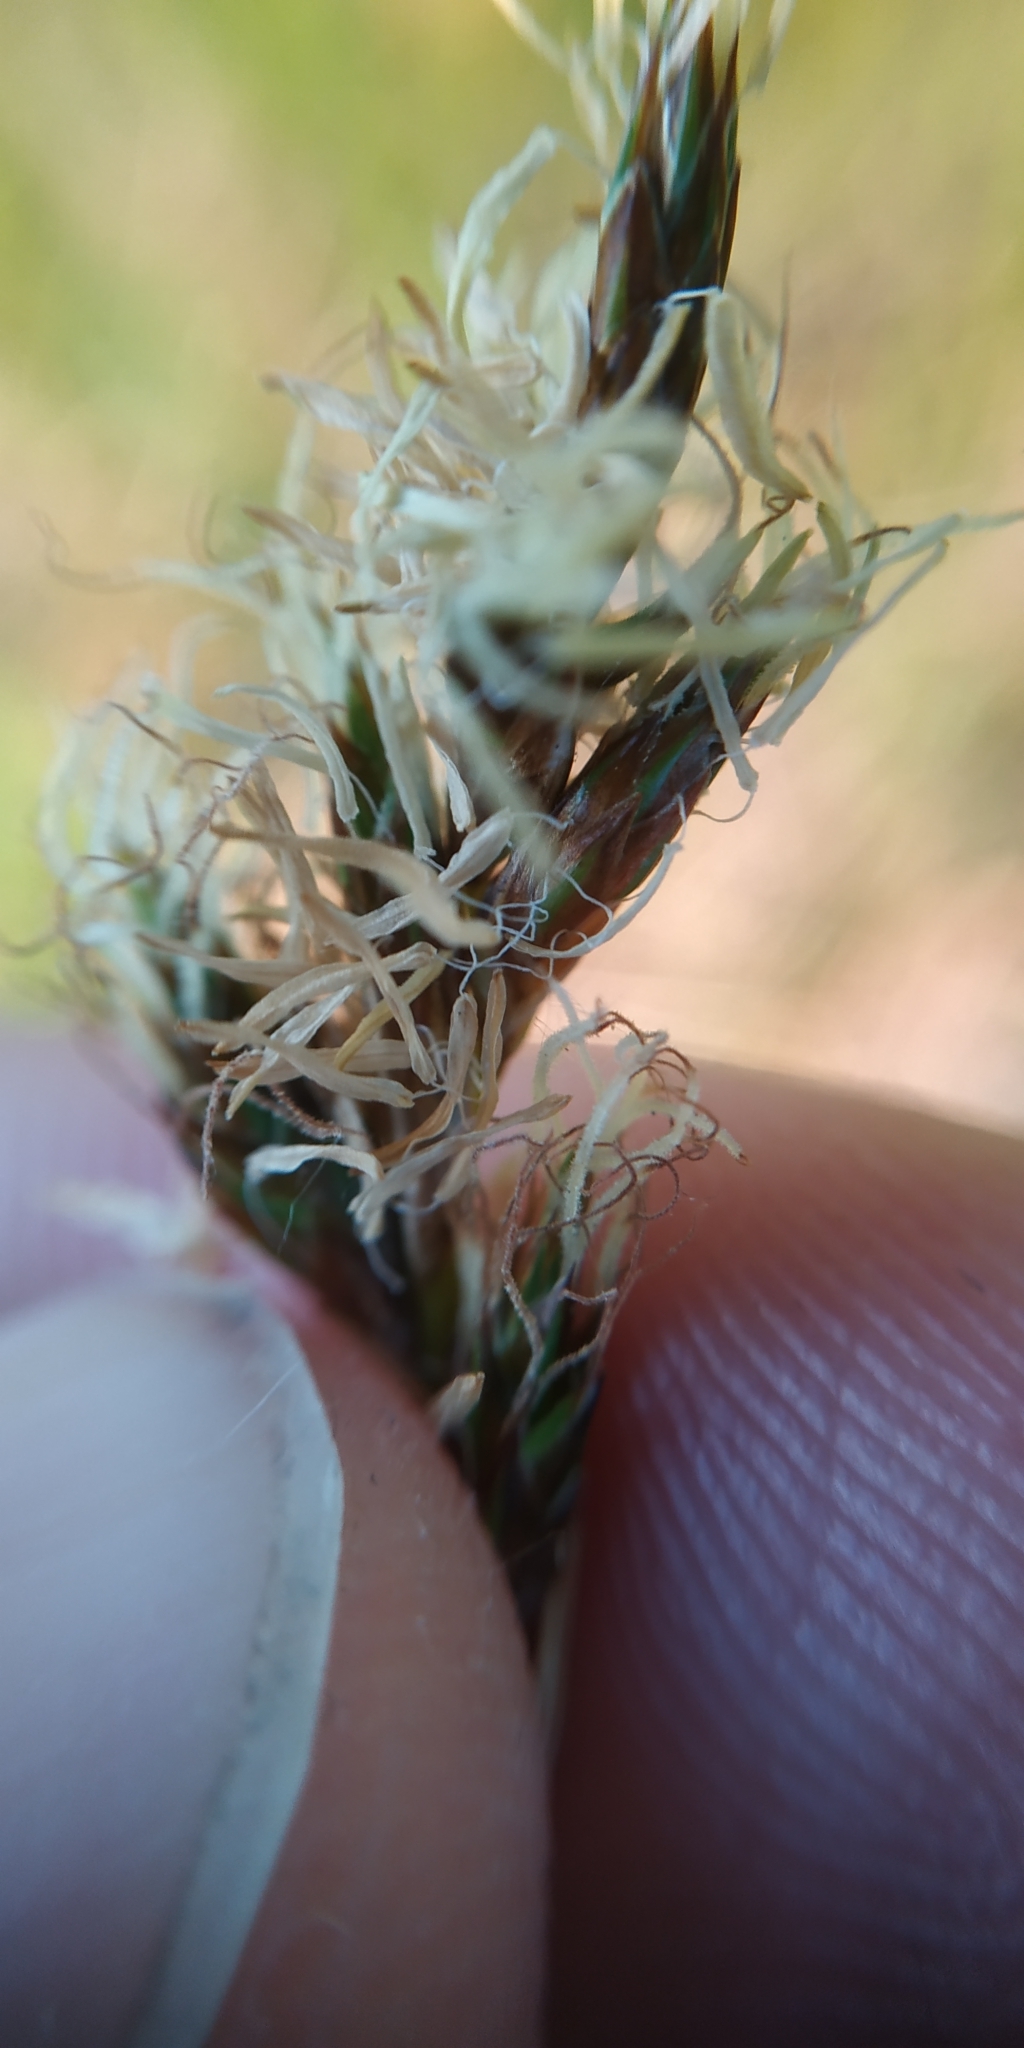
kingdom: Plantae
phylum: Tracheophyta
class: Liliopsida
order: Poales
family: Cyperaceae
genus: Carex
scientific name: Carex praecox
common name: Early sedge
